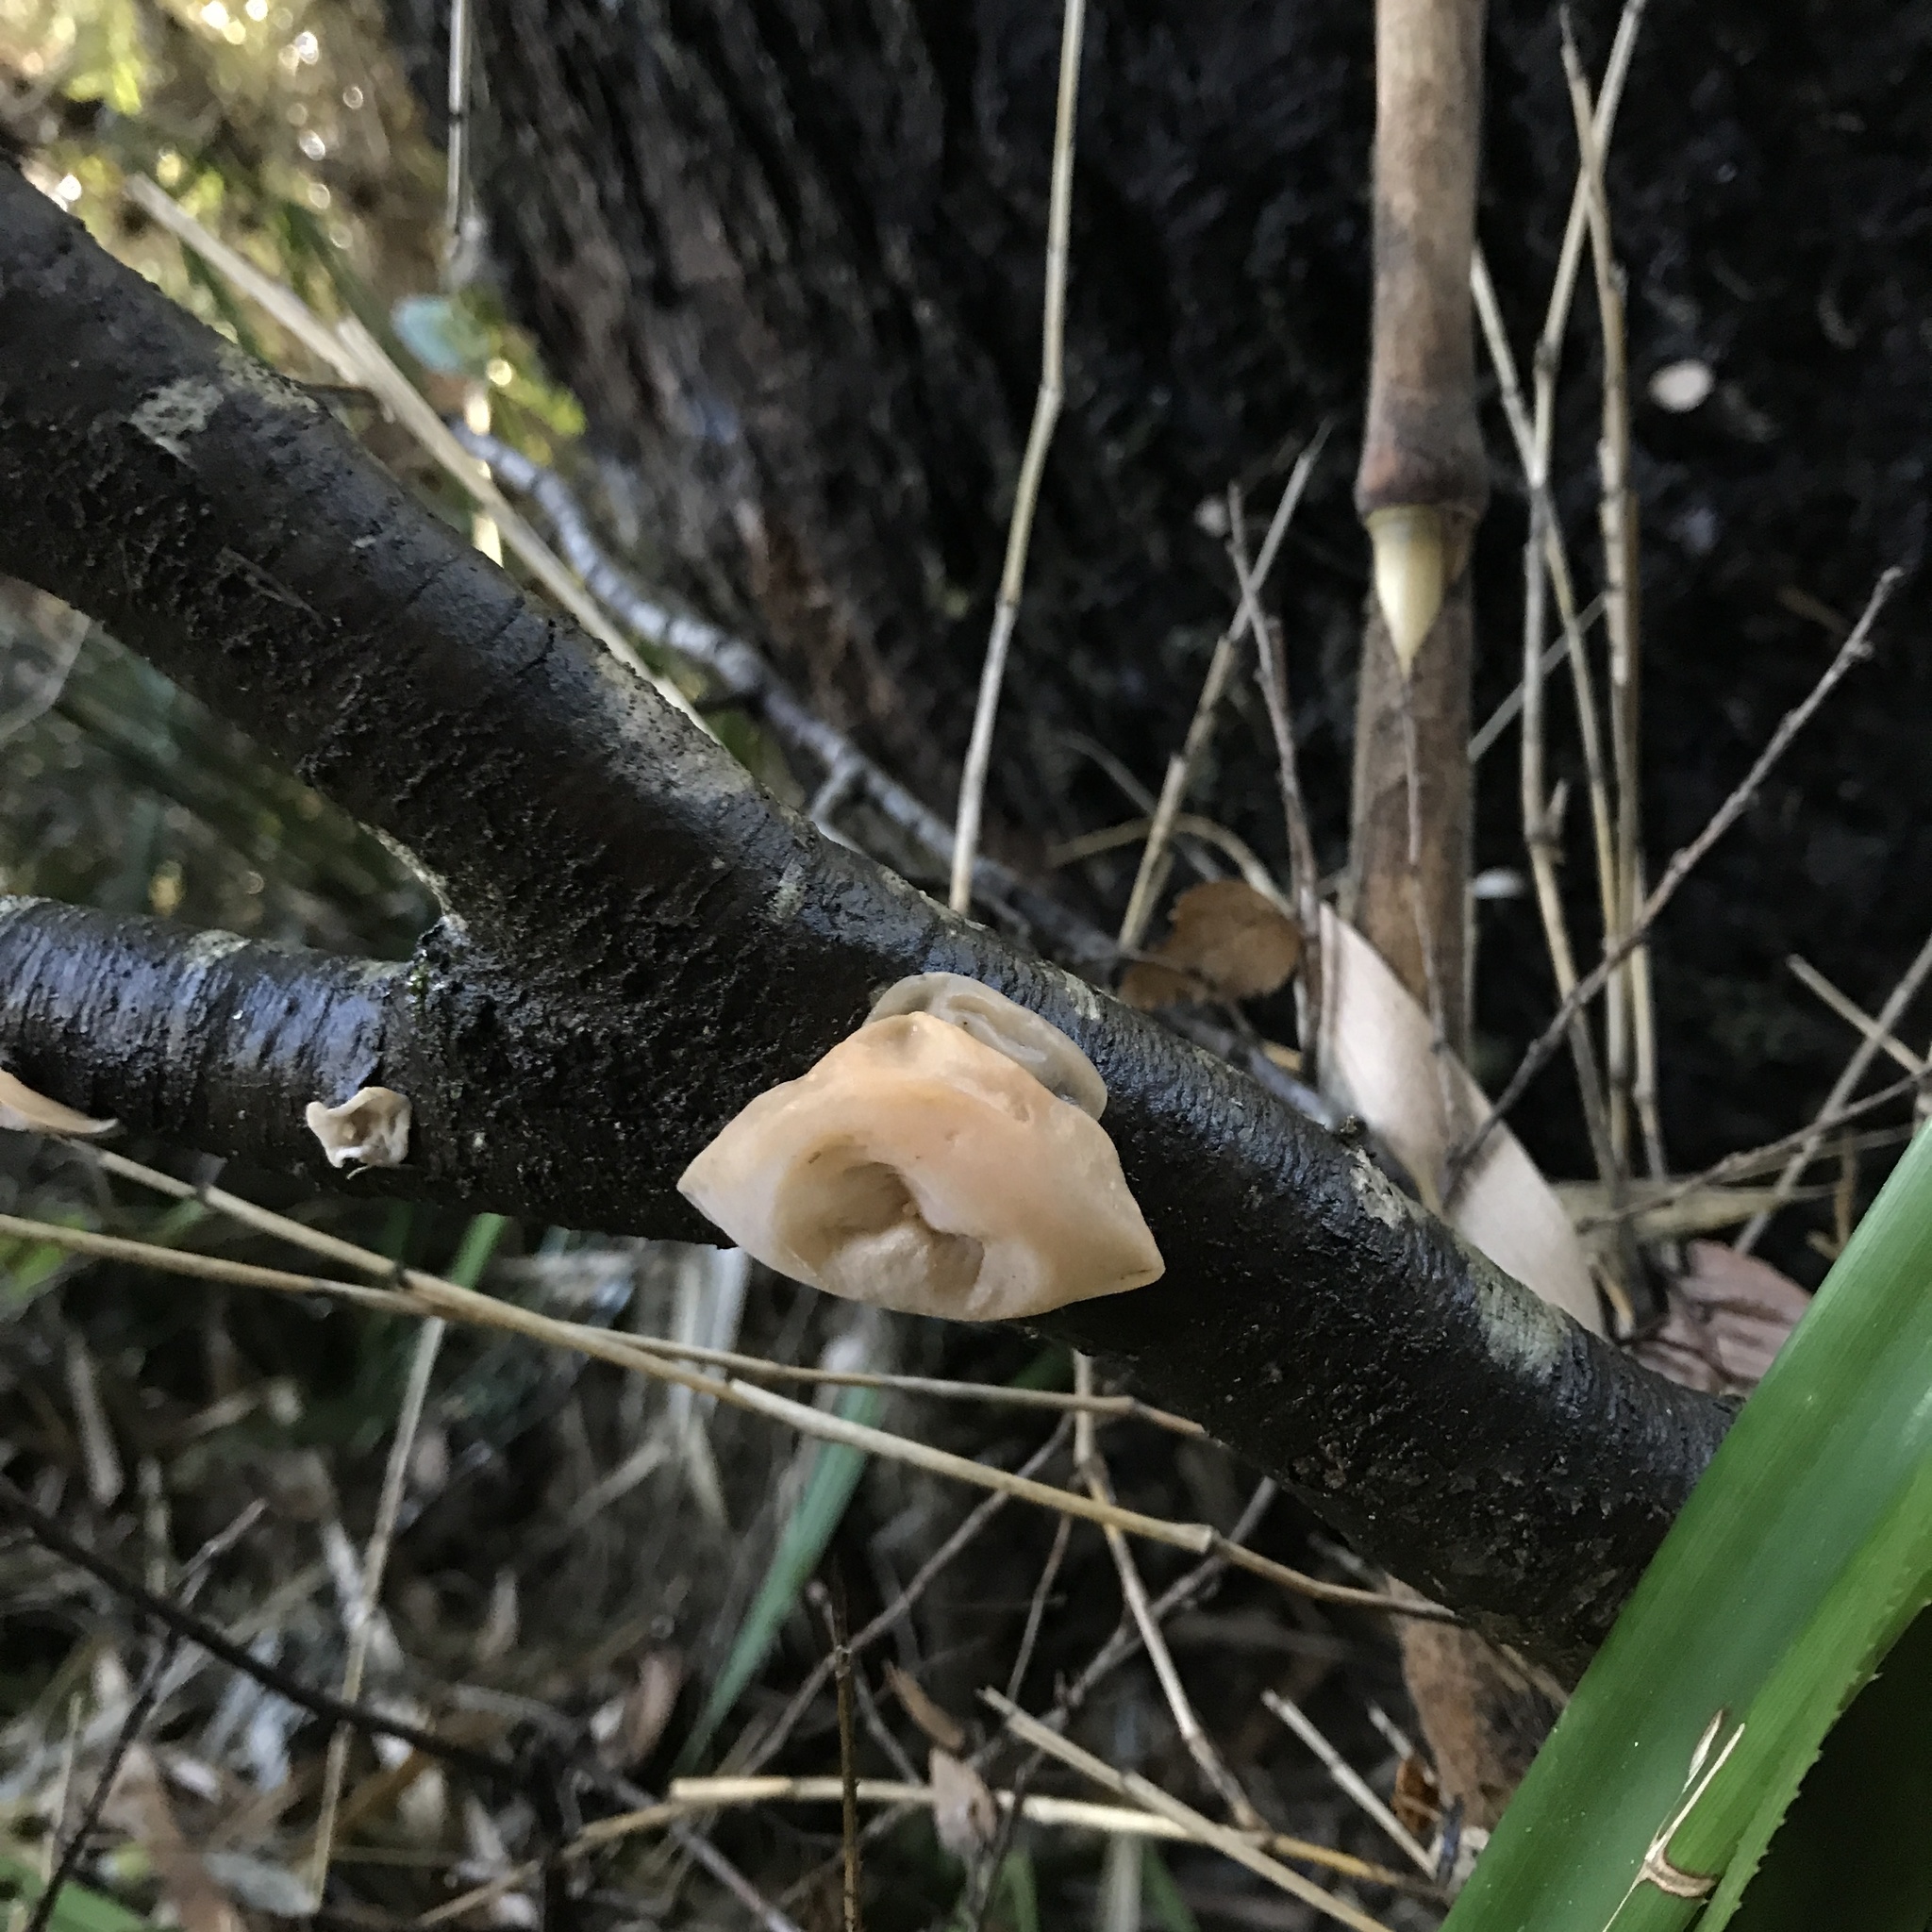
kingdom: Fungi
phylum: Basidiomycota
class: Agaricomycetes
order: Russulales
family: Stereaceae
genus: Aleurodiscus
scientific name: Aleurodiscus vitellinus
